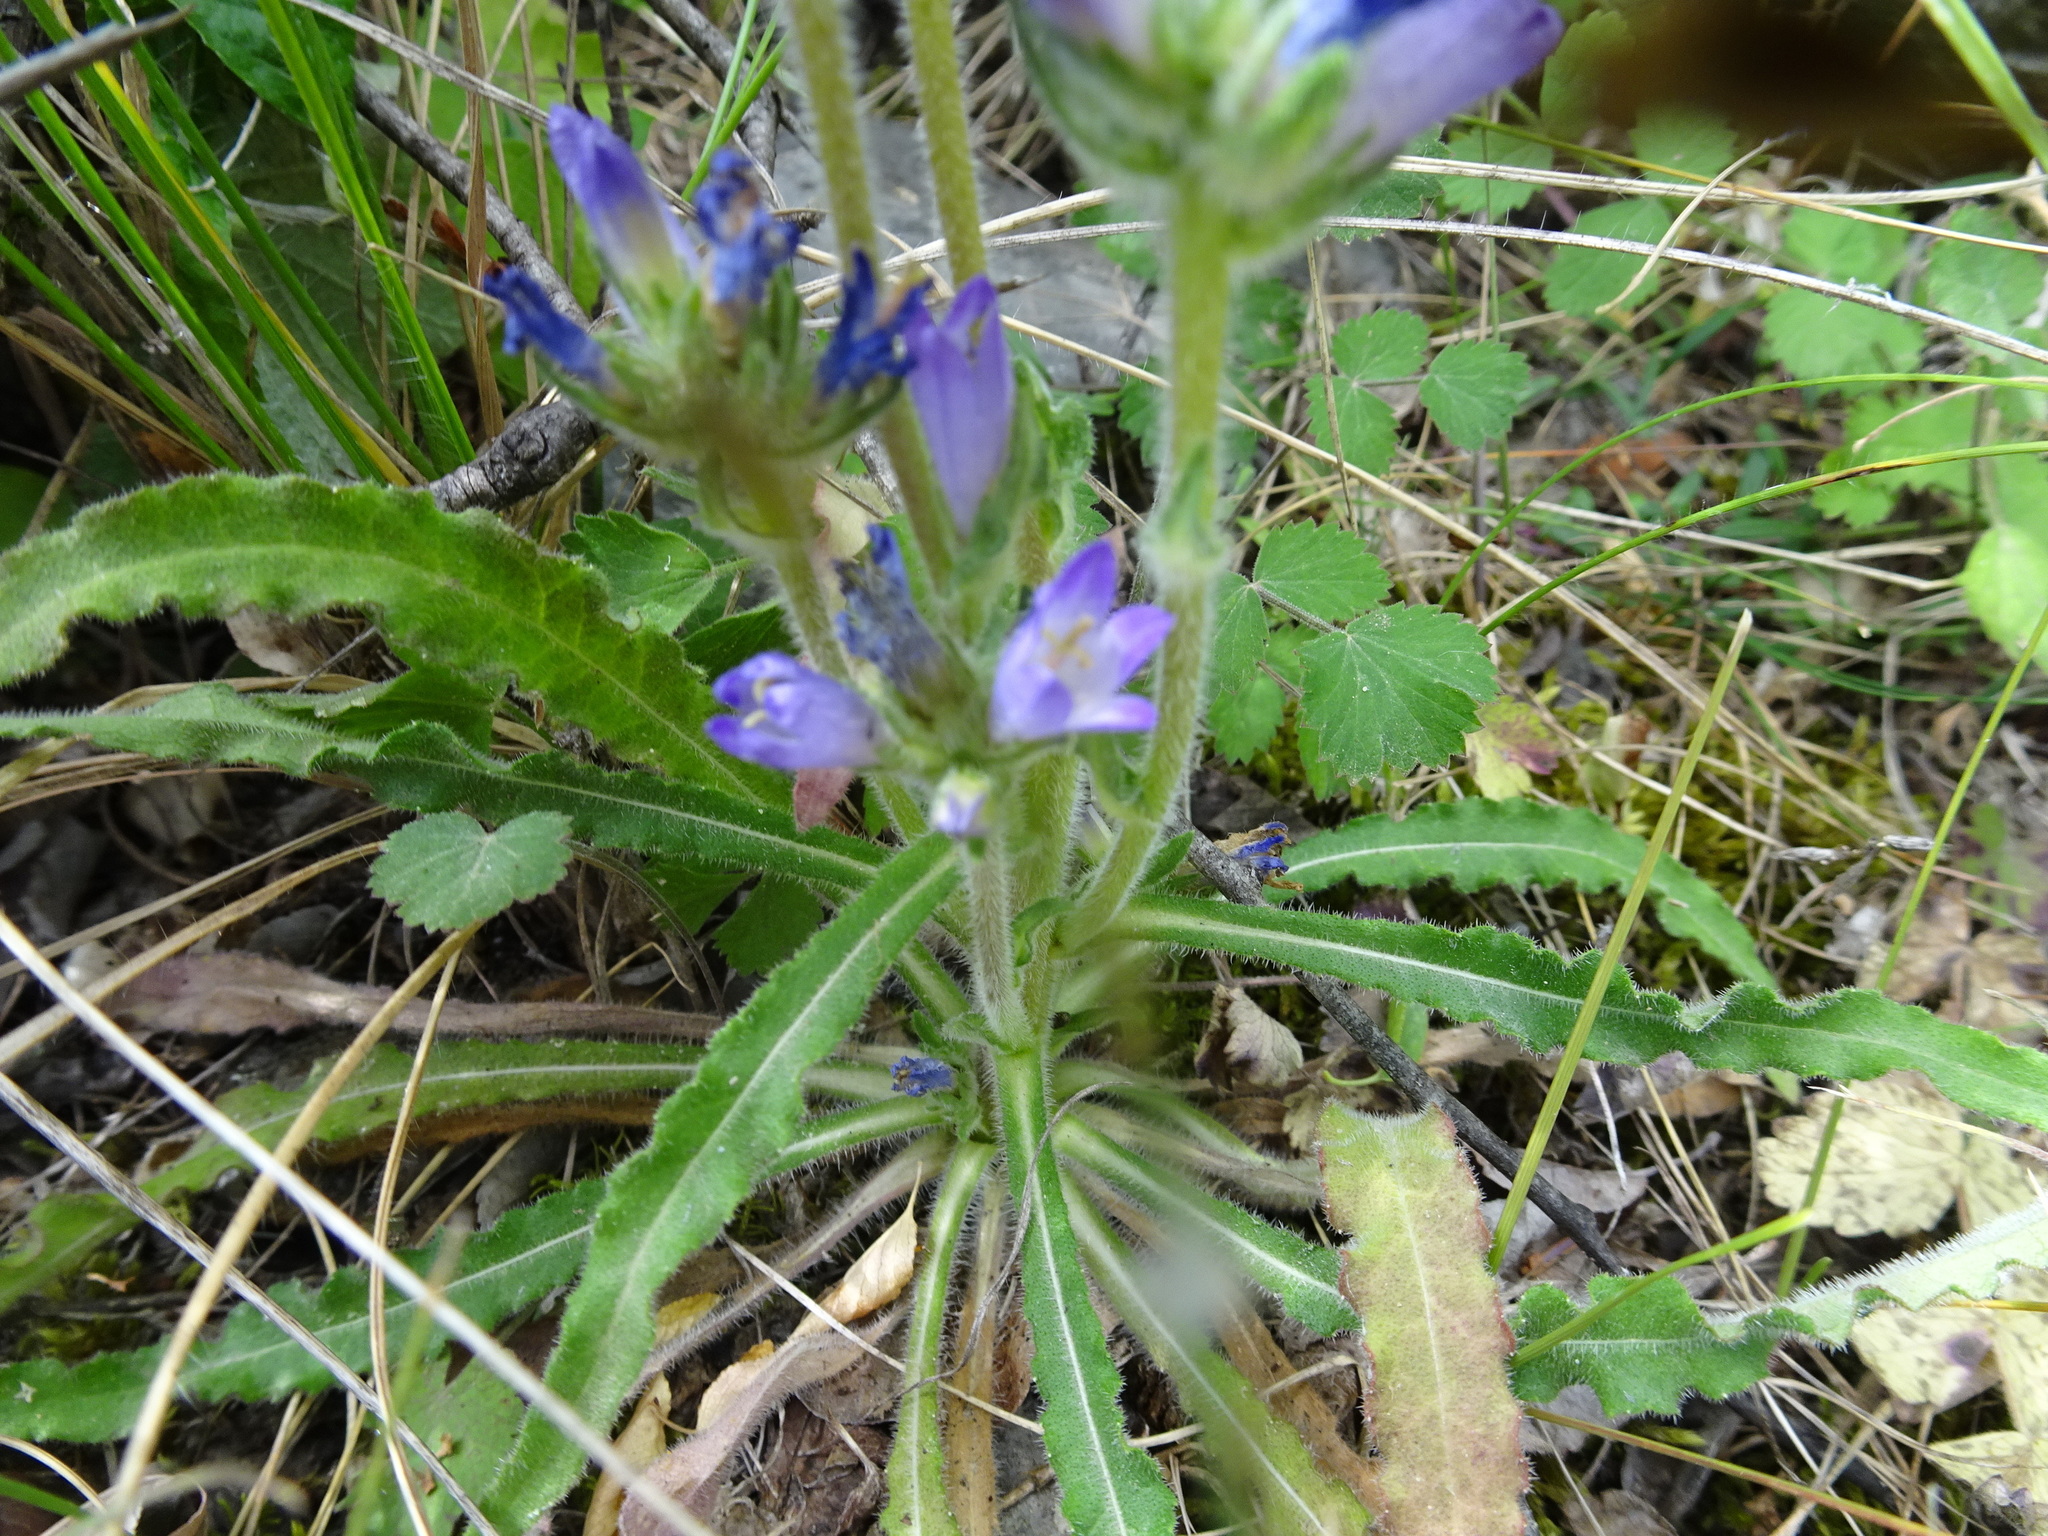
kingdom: Plantae
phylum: Tracheophyta
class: Magnoliopsida
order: Asterales
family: Campanulaceae
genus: Campanula
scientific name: Campanula glomerata
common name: Clustered bellflower
